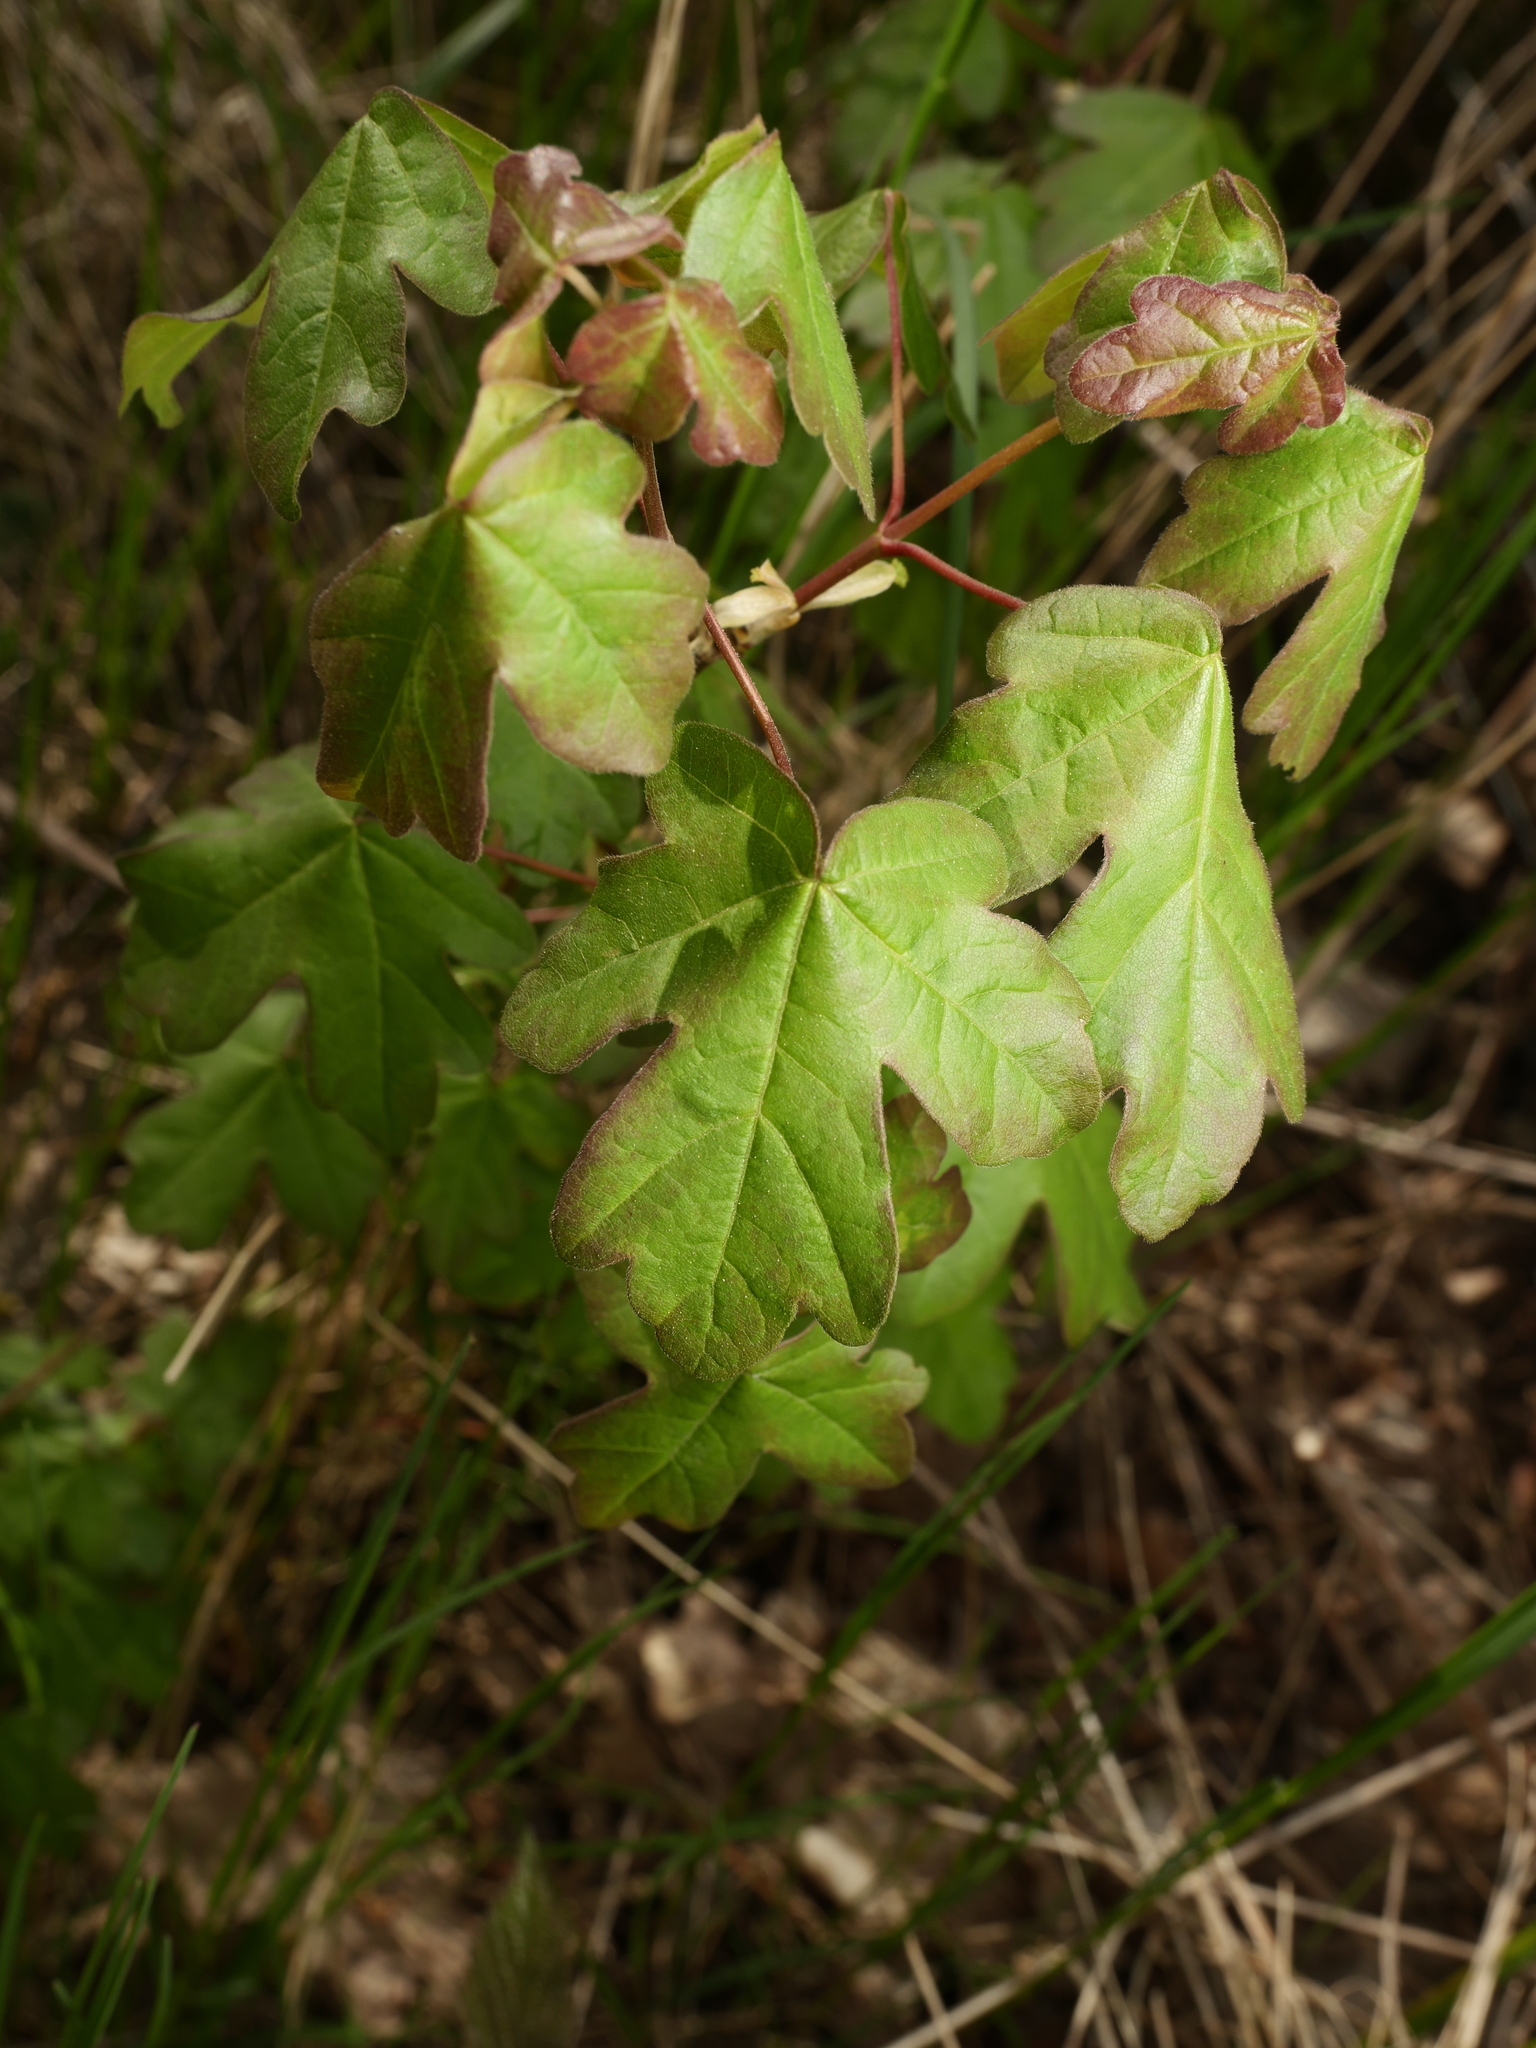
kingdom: Plantae
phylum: Tracheophyta
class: Magnoliopsida
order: Sapindales
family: Sapindaceae
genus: Acer
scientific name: Acer campestre
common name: Field maple
